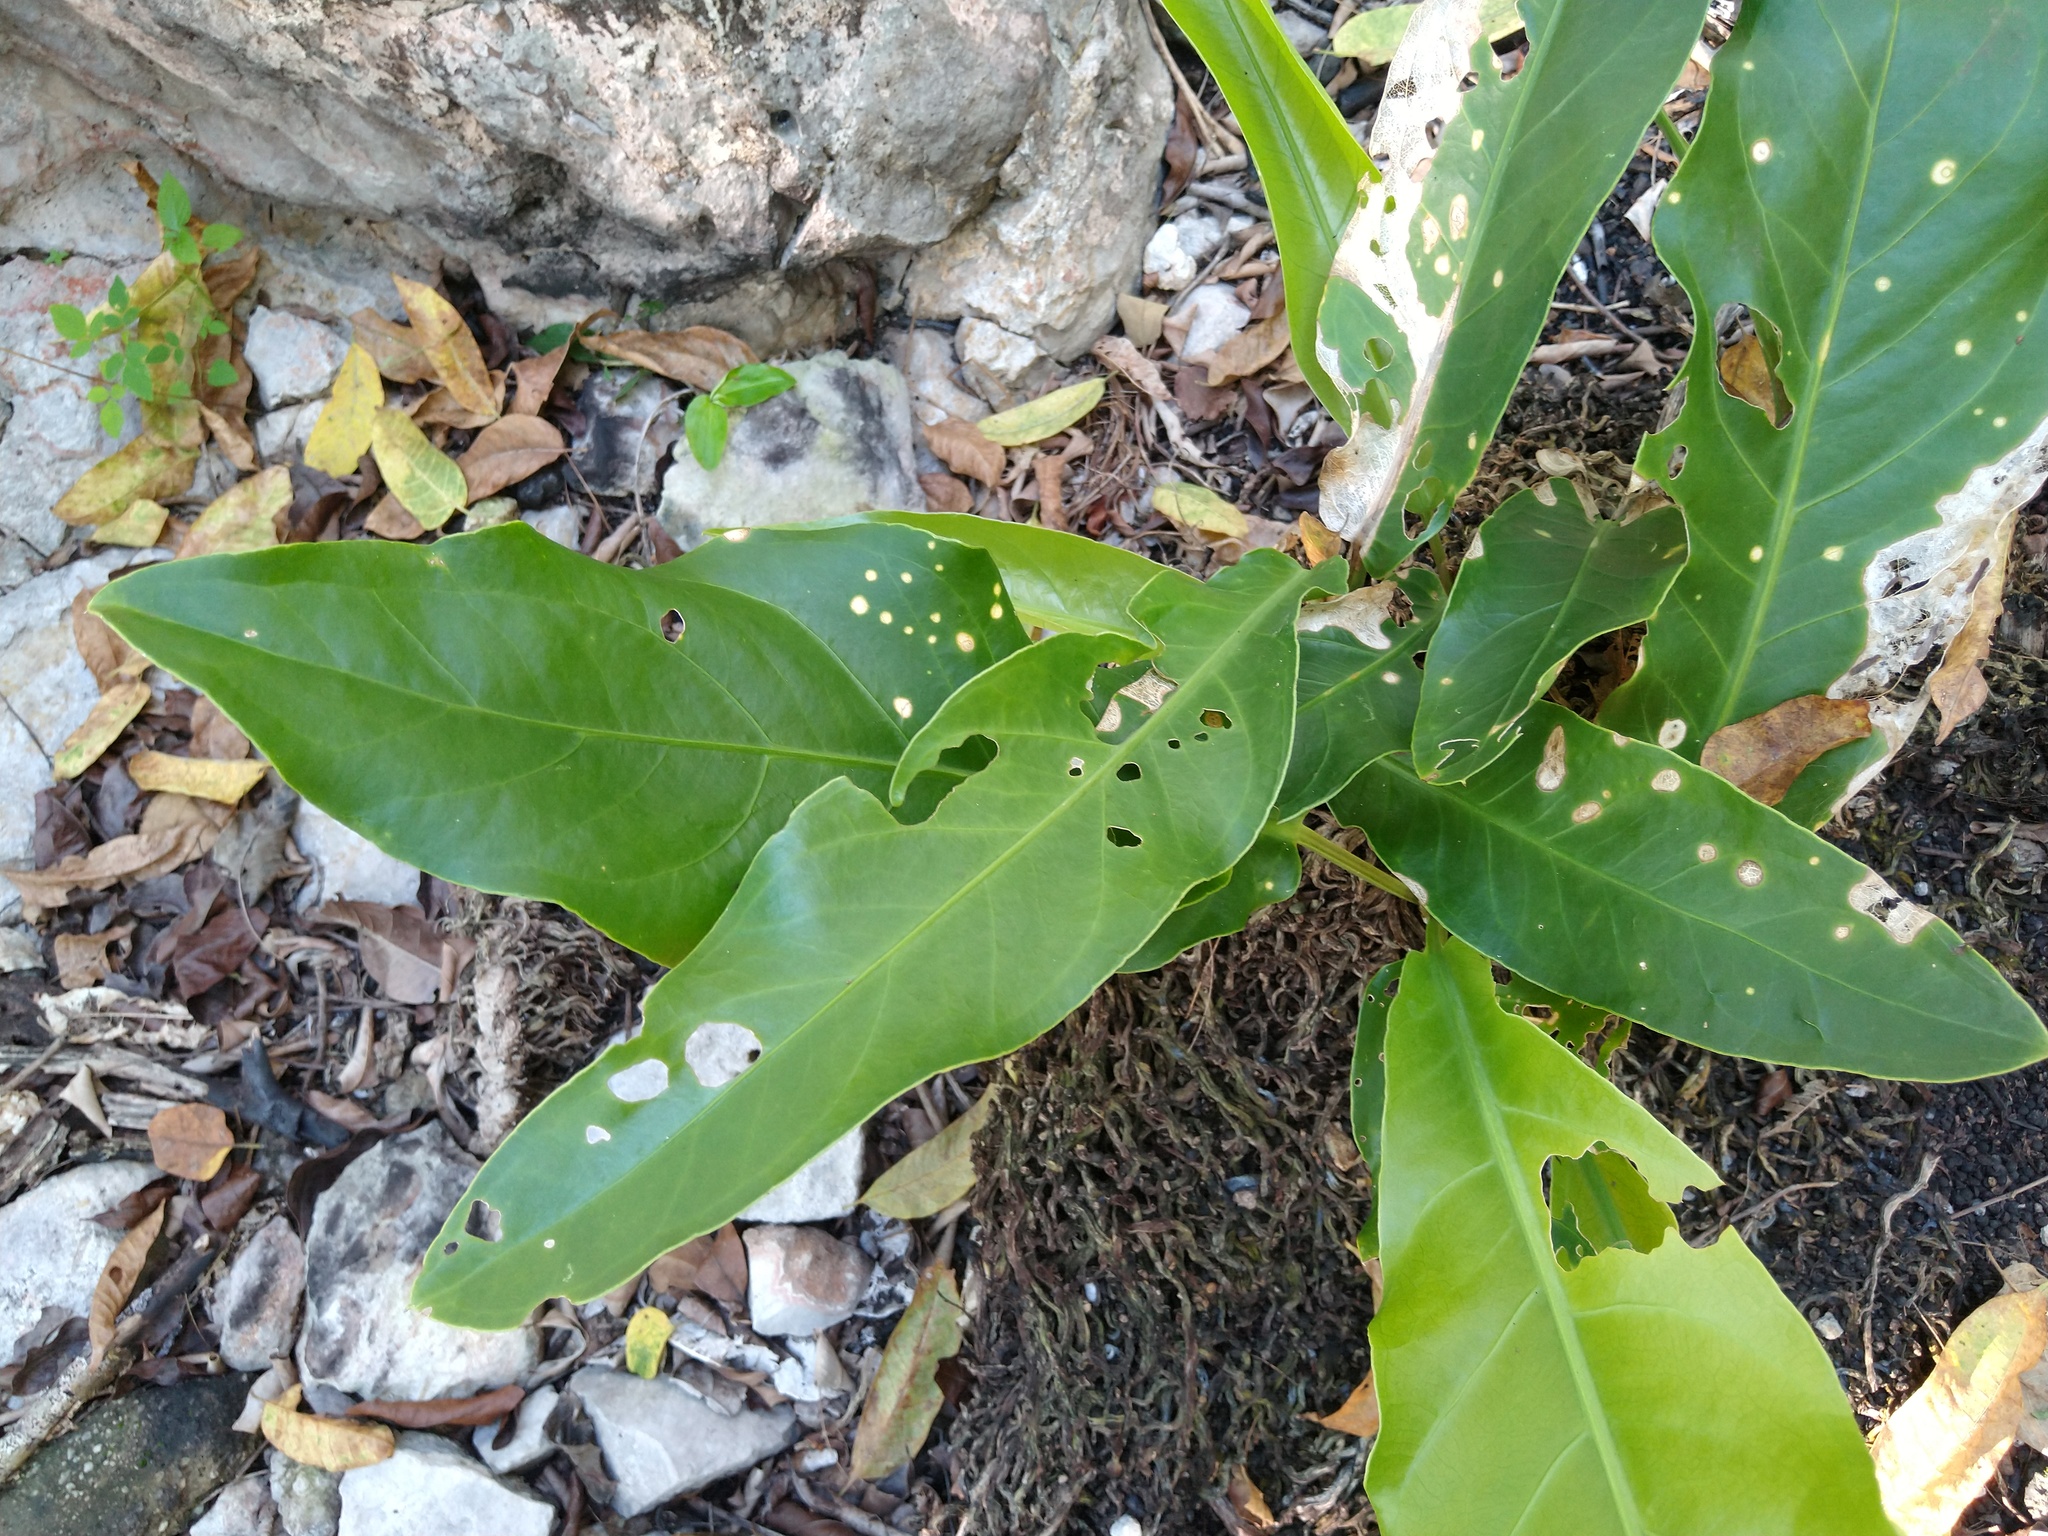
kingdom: Plantae
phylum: Tracheophyta
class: Liliopsida
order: Alismatales
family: Araceae
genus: Anthurium
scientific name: Anthurium schlechtendalii
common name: Laceleaf
